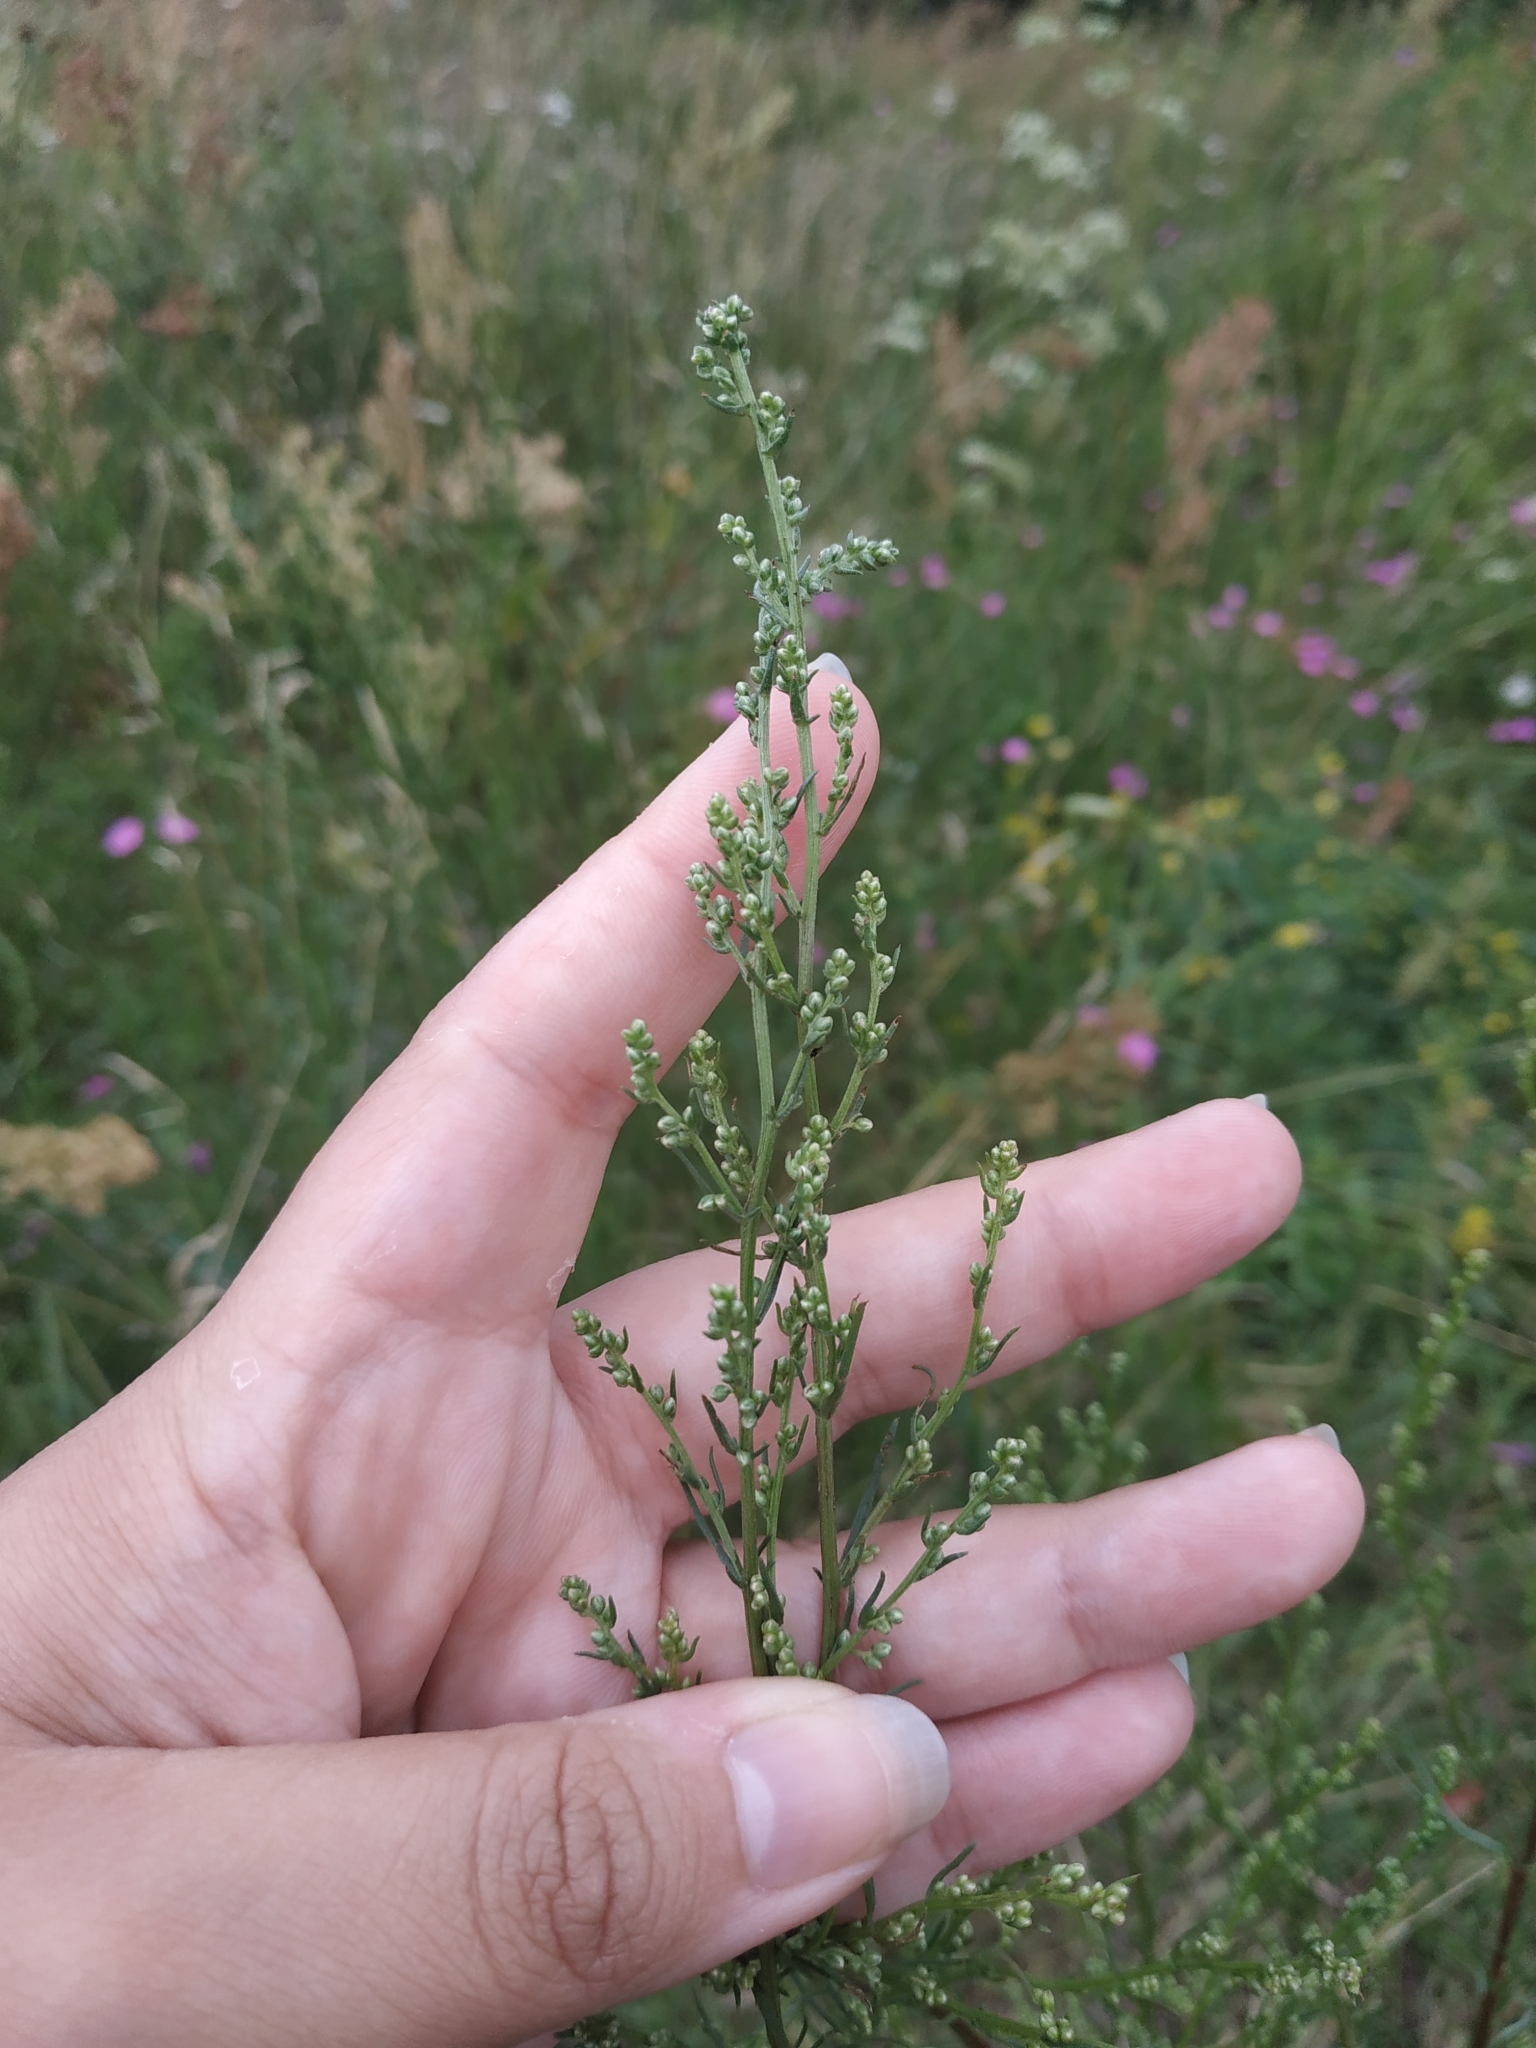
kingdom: Plantae
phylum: Tracheophyta
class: Magnoliopsida
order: Asterales
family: Asteraceae
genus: Artemisia
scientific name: Artemisia campestris
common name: Field wormwood
